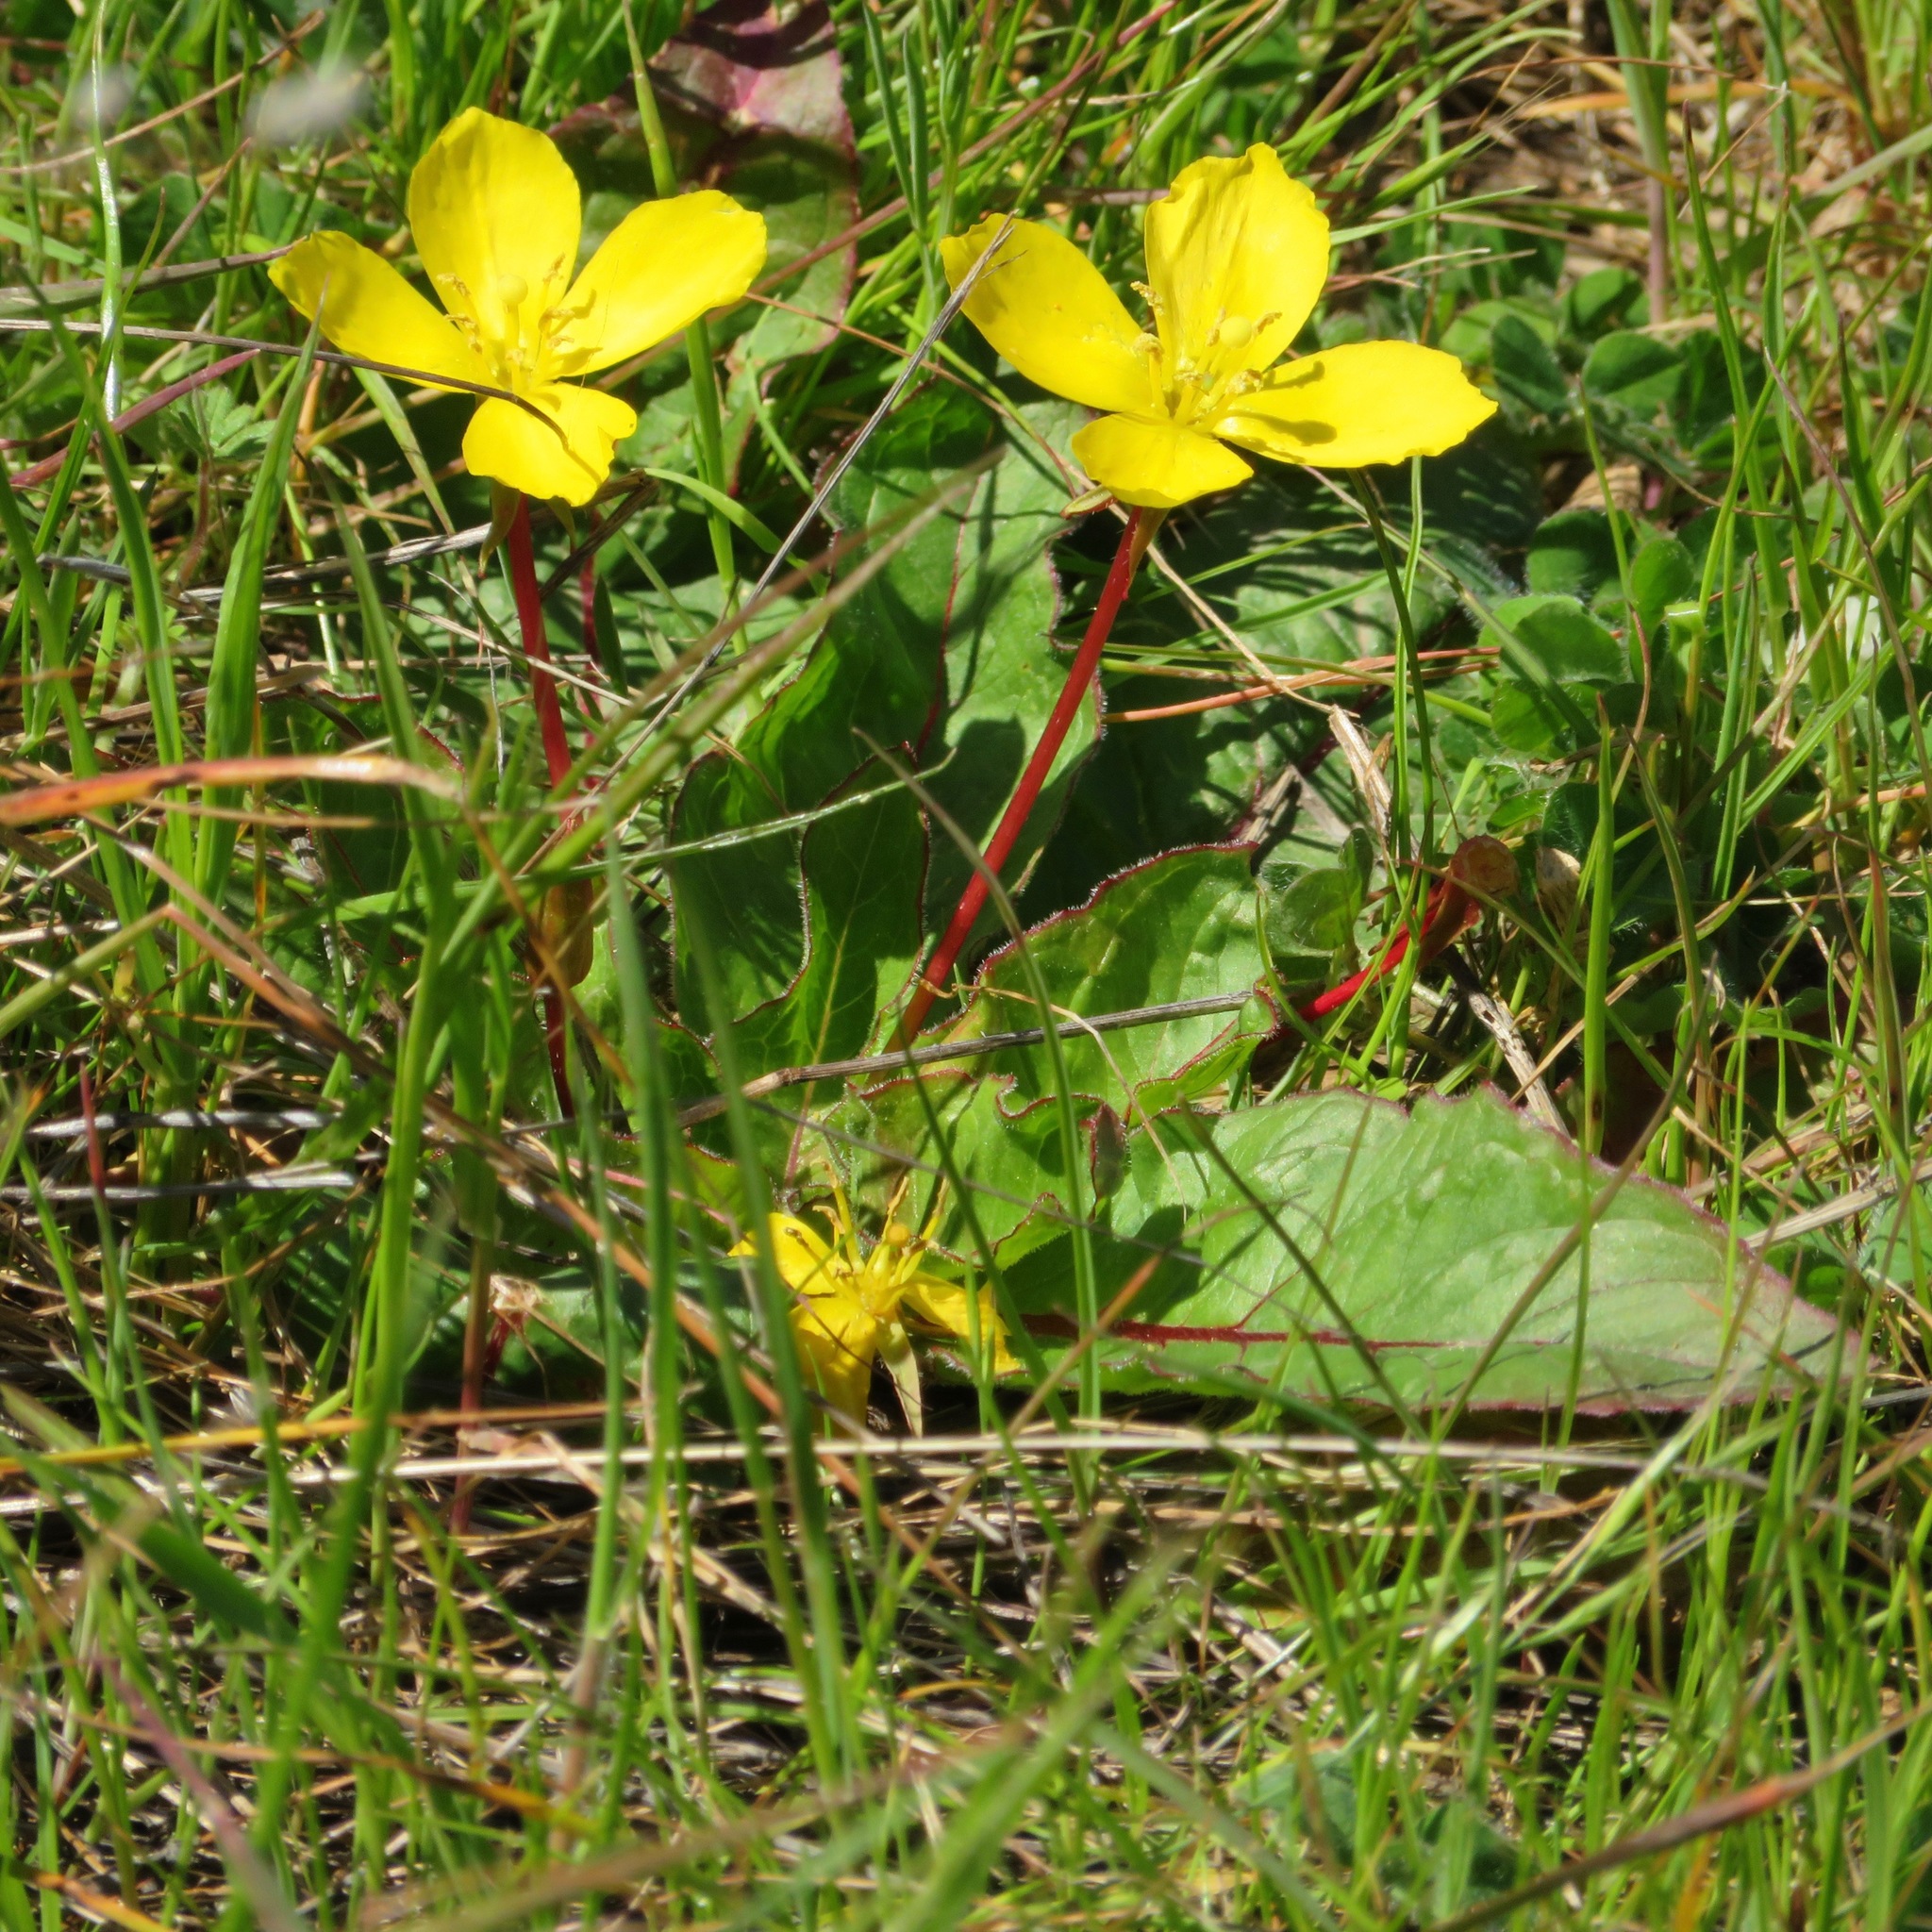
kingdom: Plantae
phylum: Tracheophyta
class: Magnoliopsida
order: Myrtales
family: Onagraceae
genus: Taraxia
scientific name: Taraxia ovata
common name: Goldeneggs
